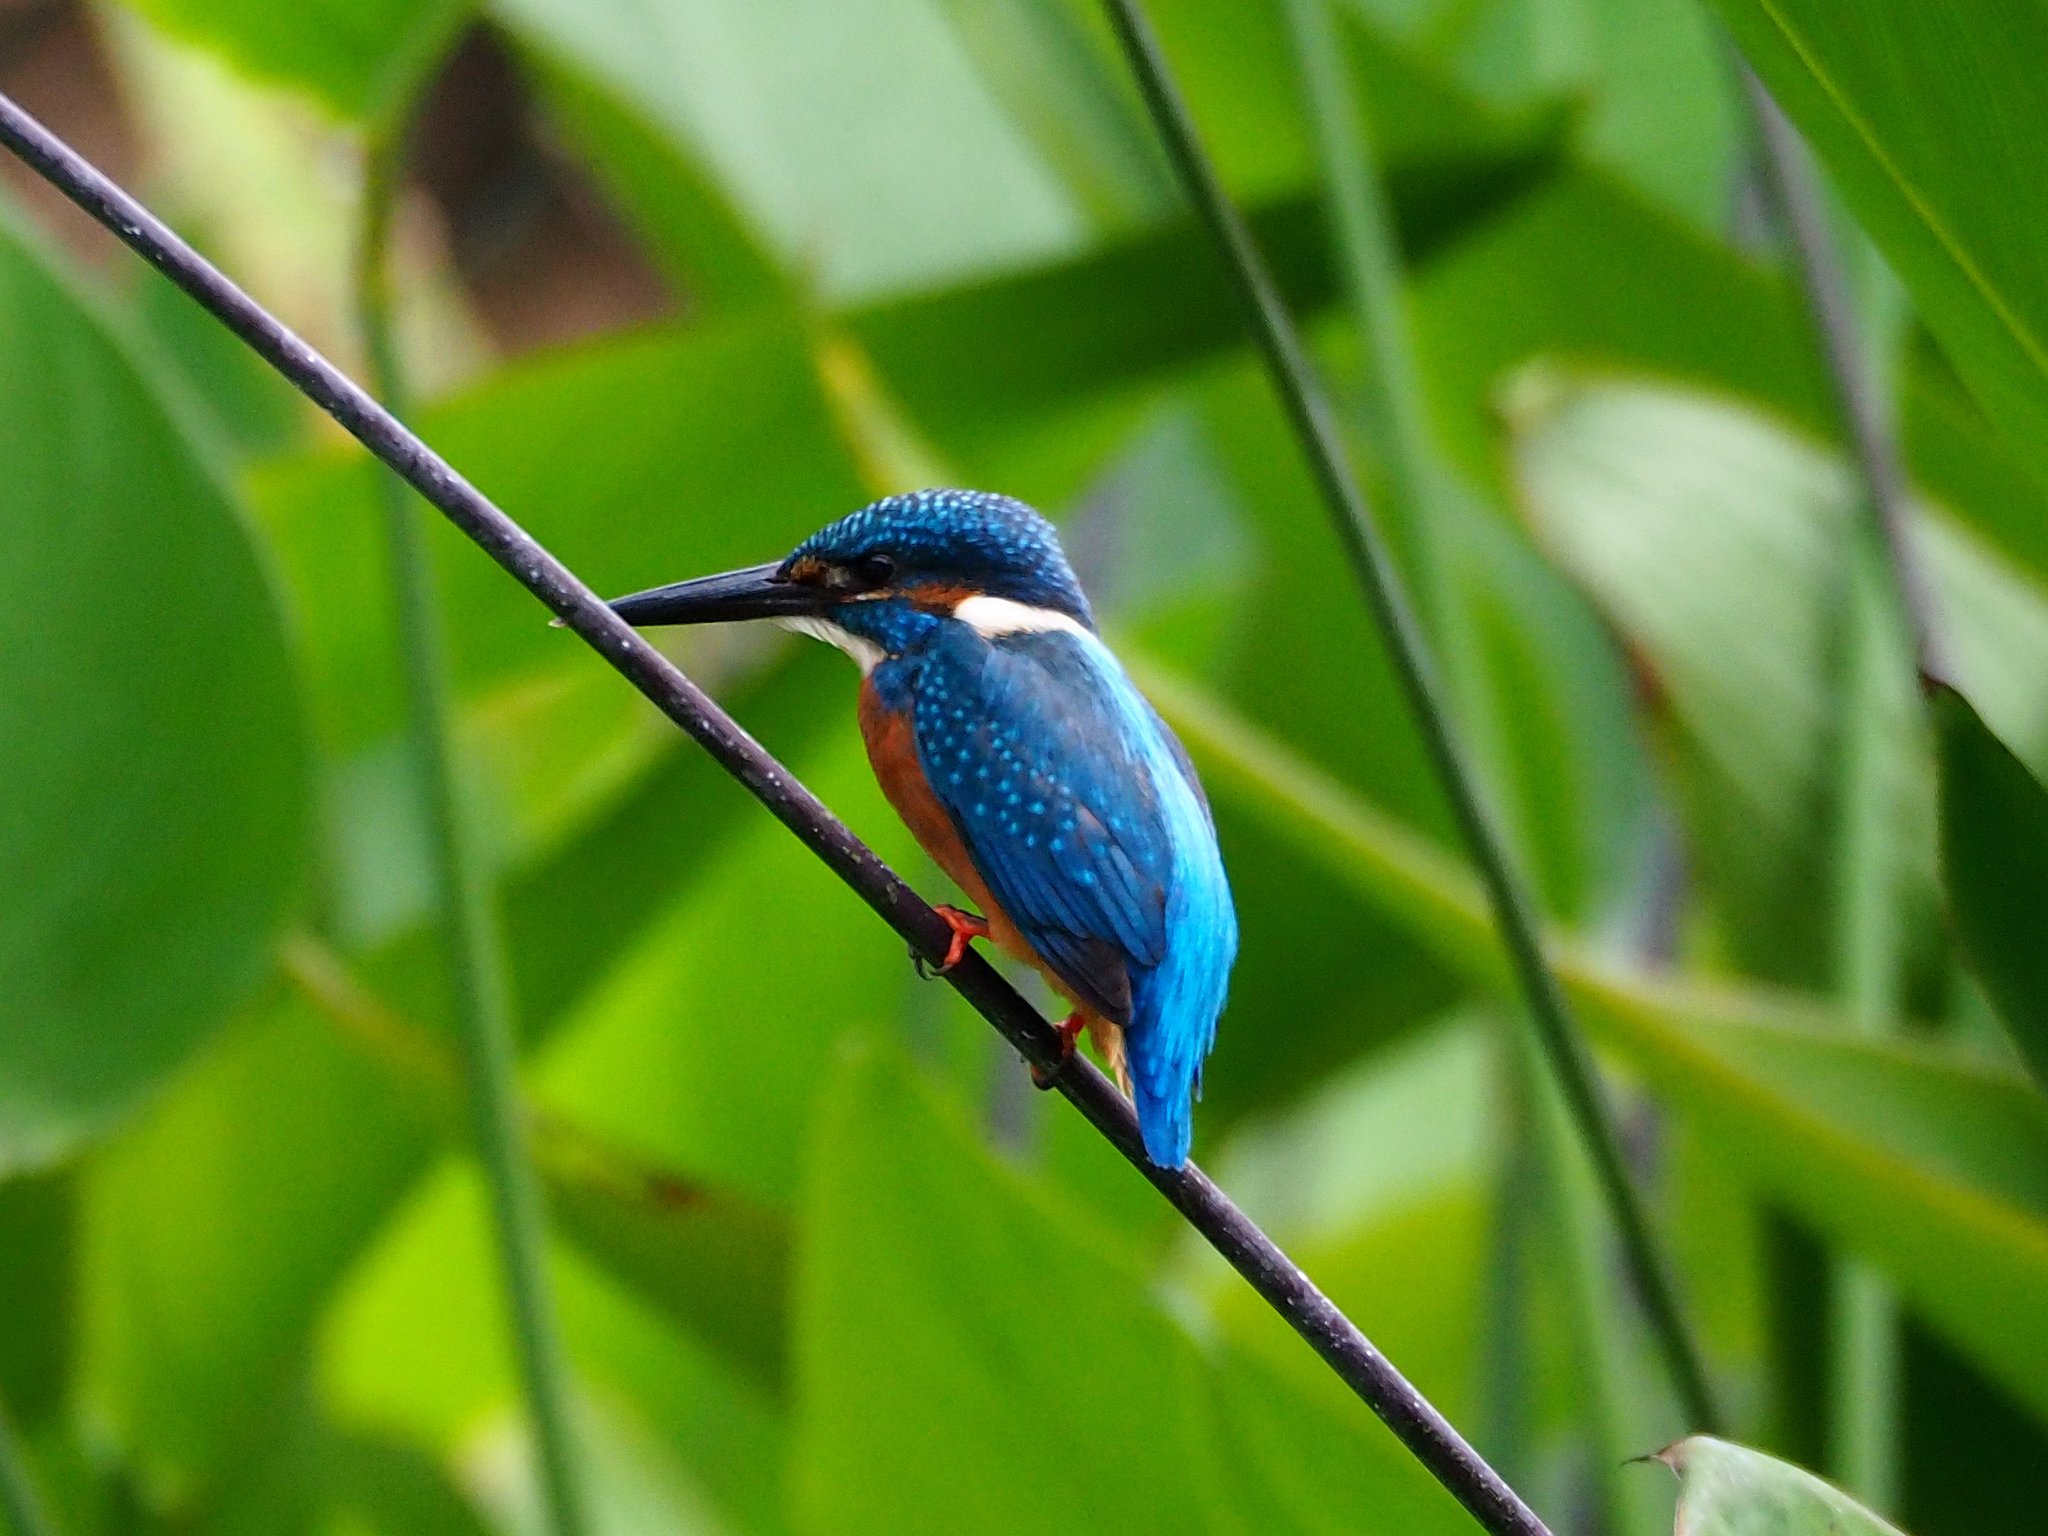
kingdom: Animalia
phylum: Chordata
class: Aves
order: Coraciiformes
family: Alcedinidae
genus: Alcedo
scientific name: Alcedo atthis
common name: Common kingfisher
